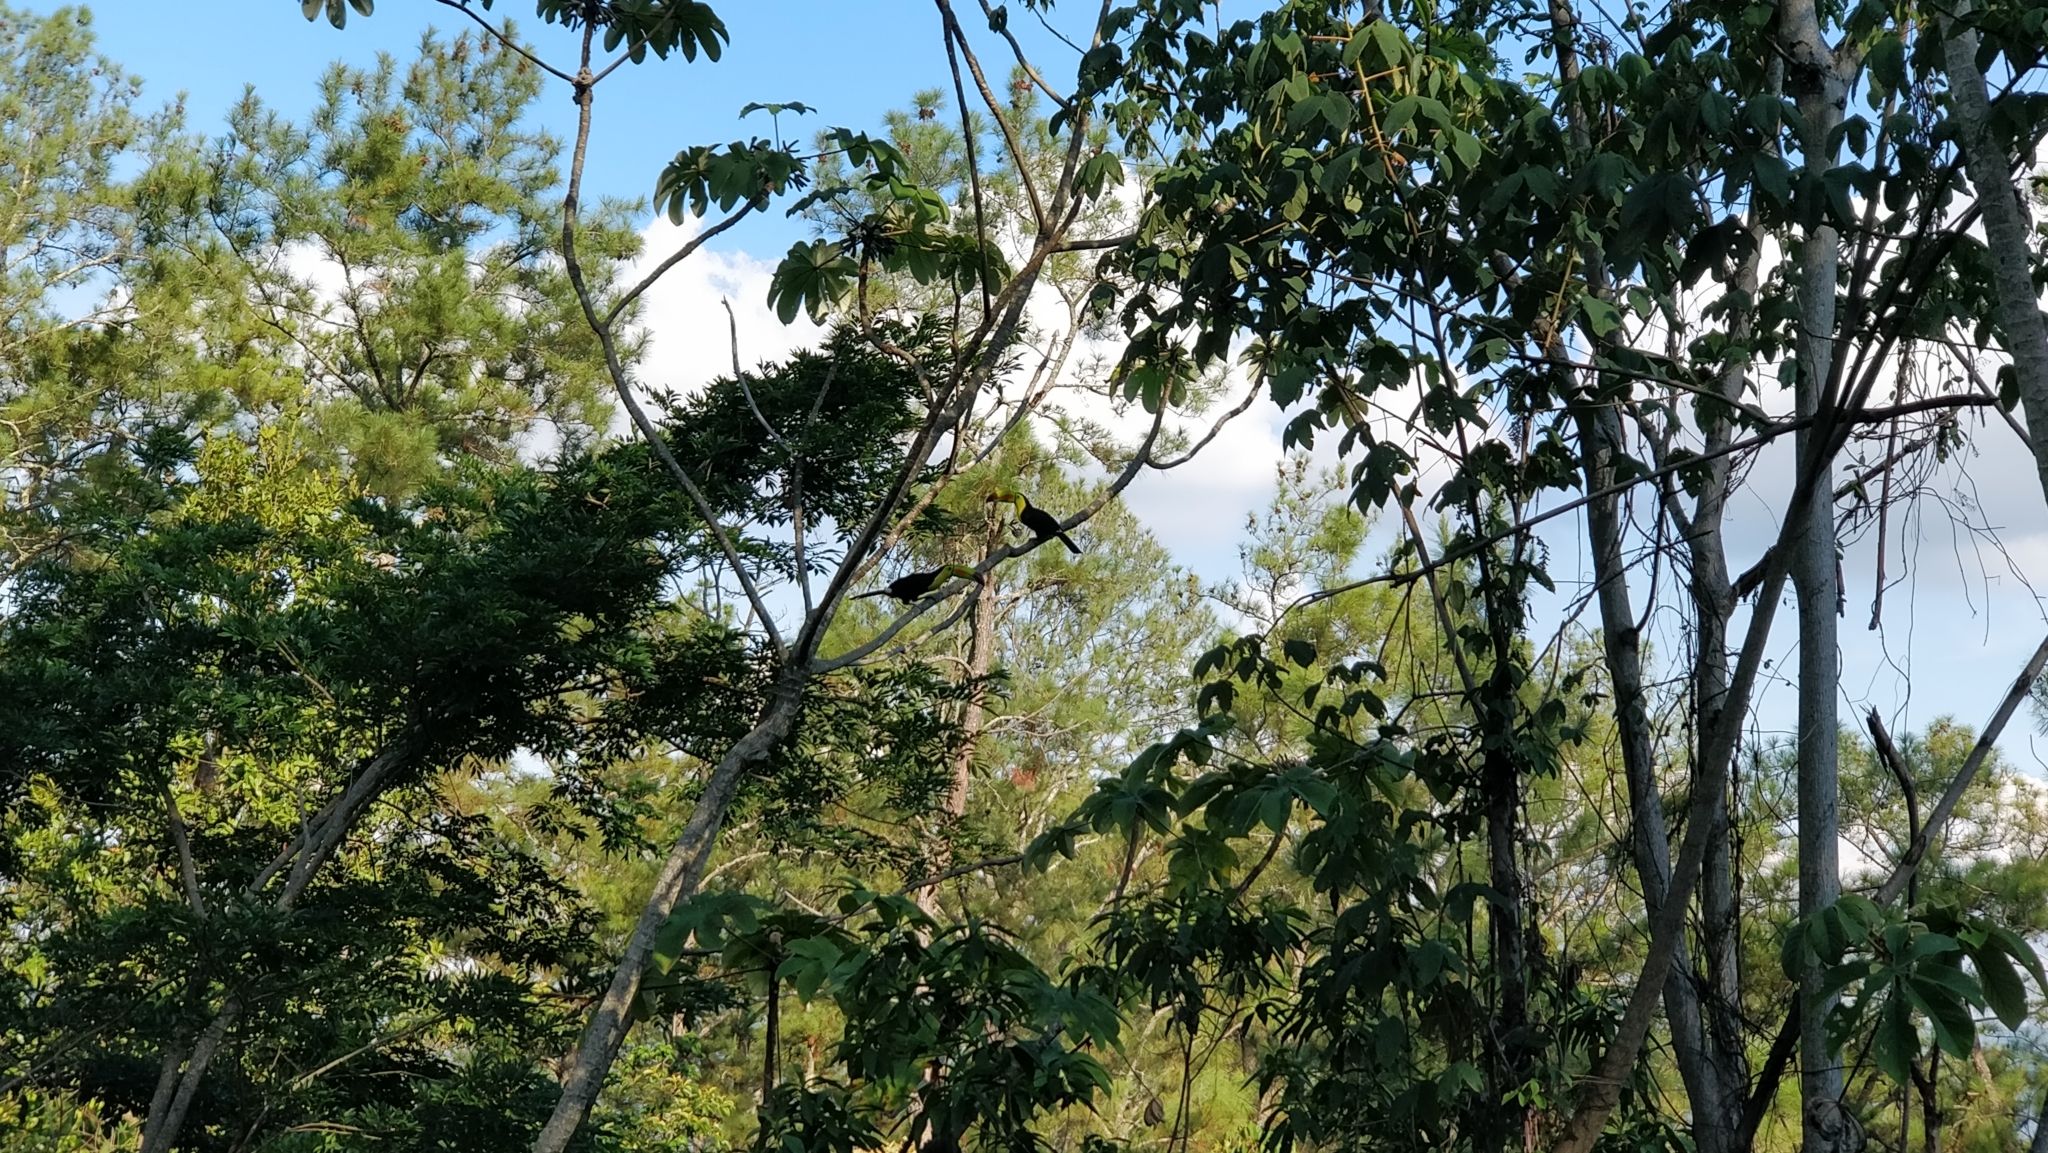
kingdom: Animalia
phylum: Chordata
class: Aves
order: Piciformes
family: Ramphastidae
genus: Ramphastos
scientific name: Ramphastos sulfuratus
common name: Keel-billed toucan
